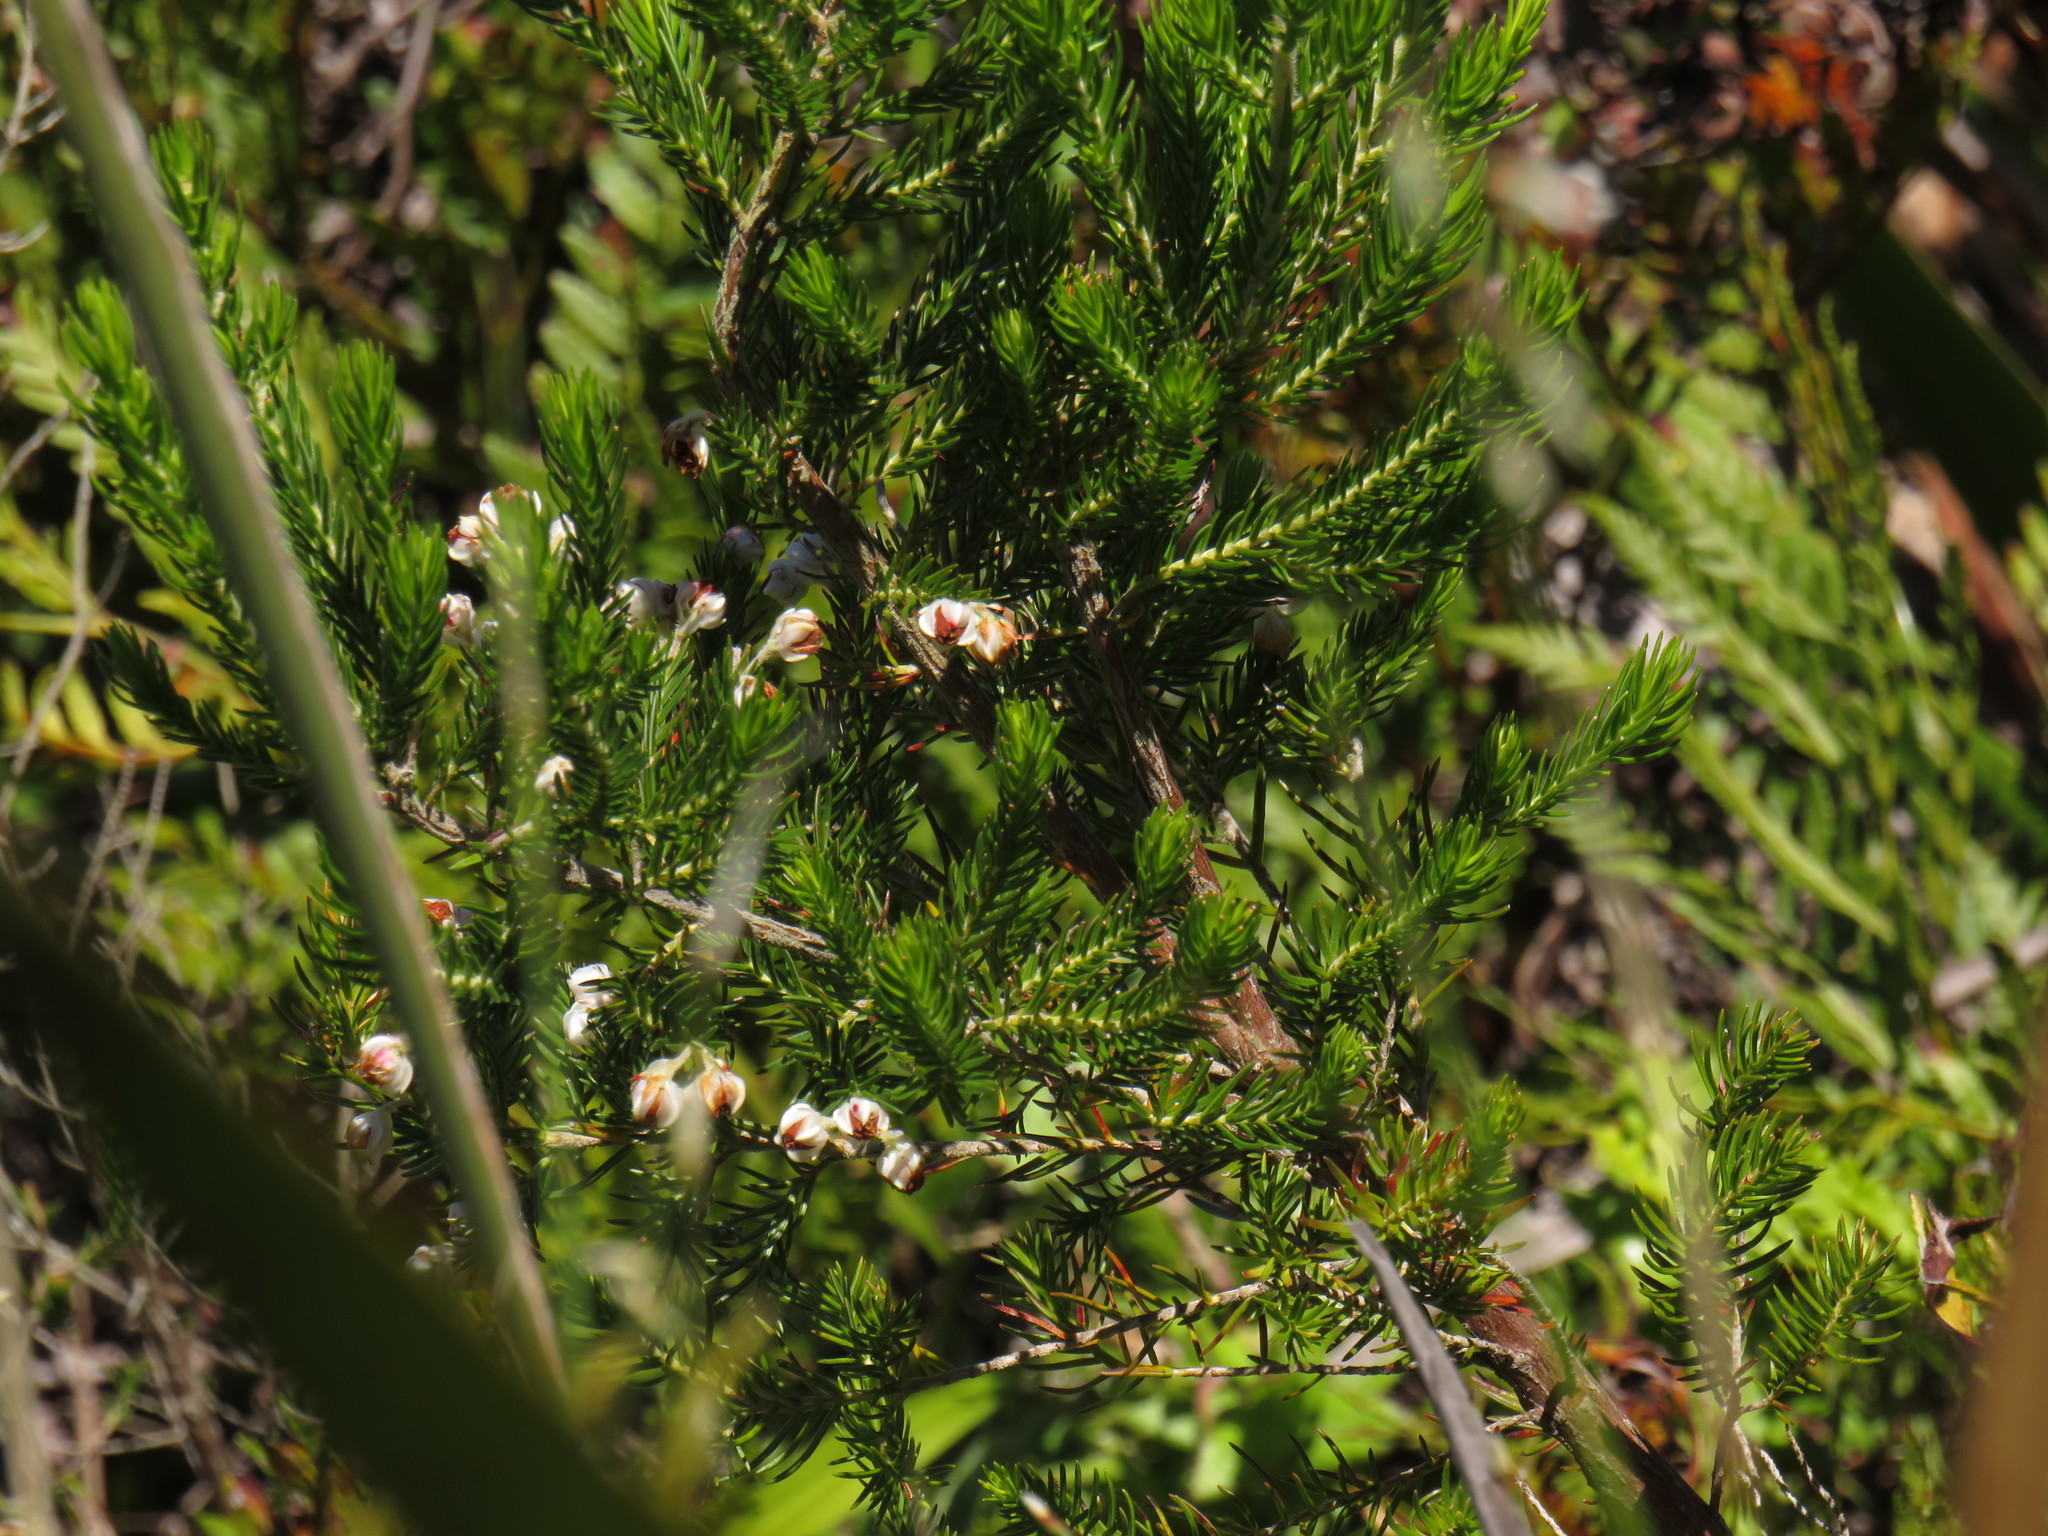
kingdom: Plantae
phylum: Tracheophyta
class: Magnoliopsida
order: Ericales
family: Ericaceae
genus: Erica
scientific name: Erica triflora
